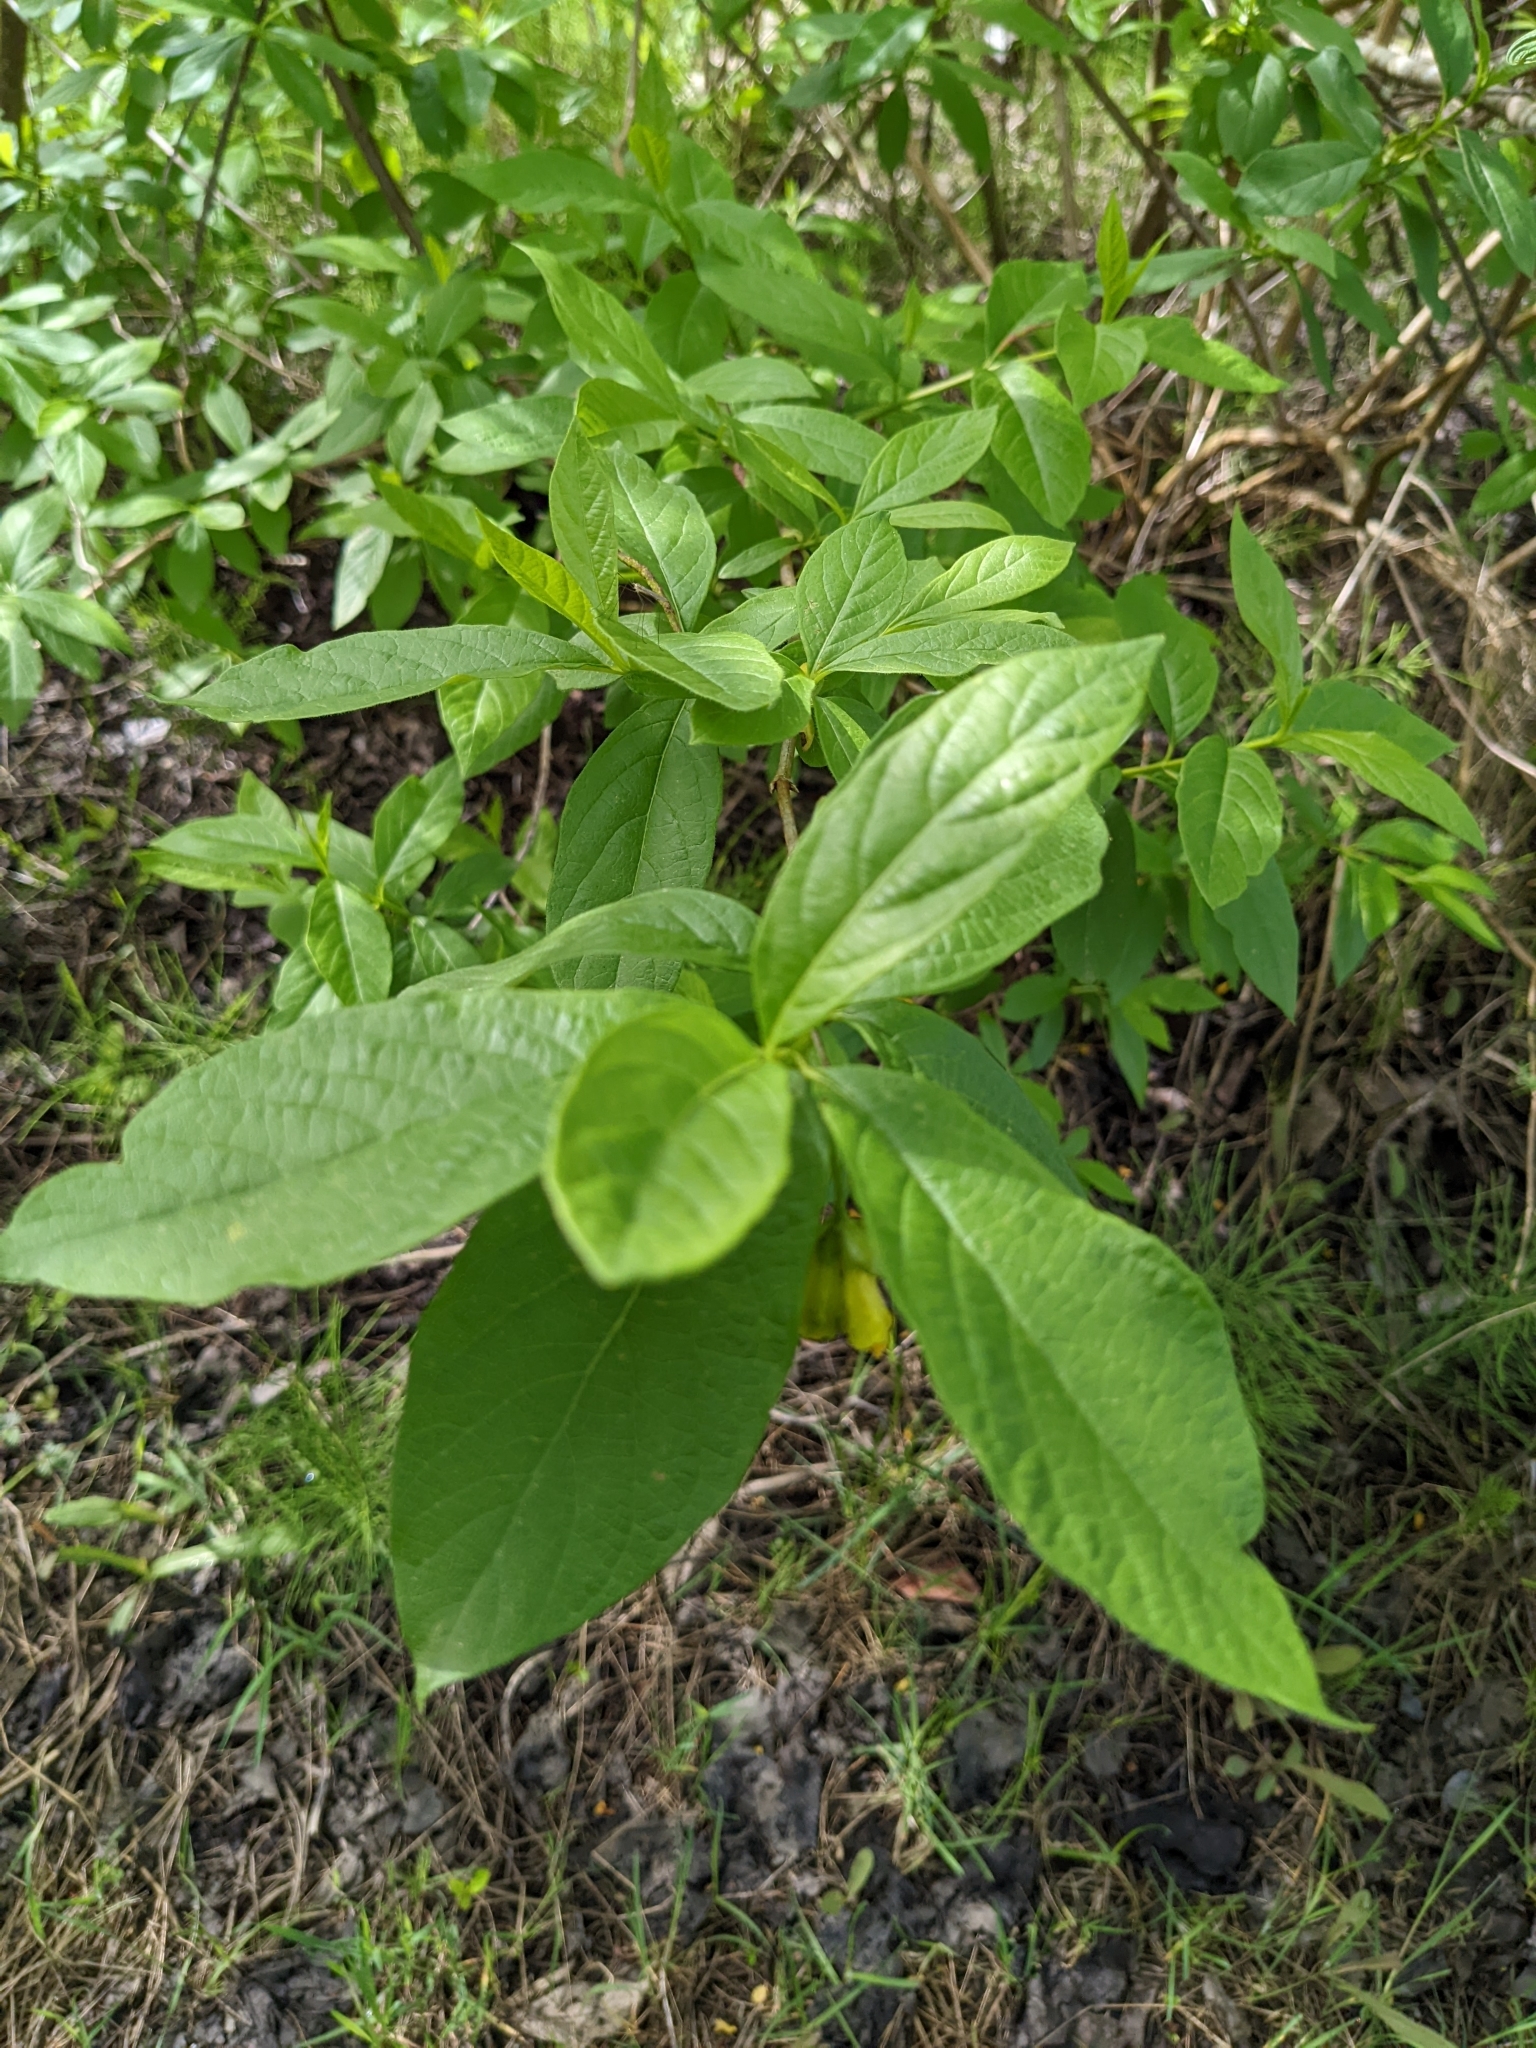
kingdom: Plantae
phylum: Tracheophyta
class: Magnoliopsida
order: Dipsacales
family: Caprifoliaceae
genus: Lonicera
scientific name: Lonicera involucrata
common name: Californian honeysuckle
